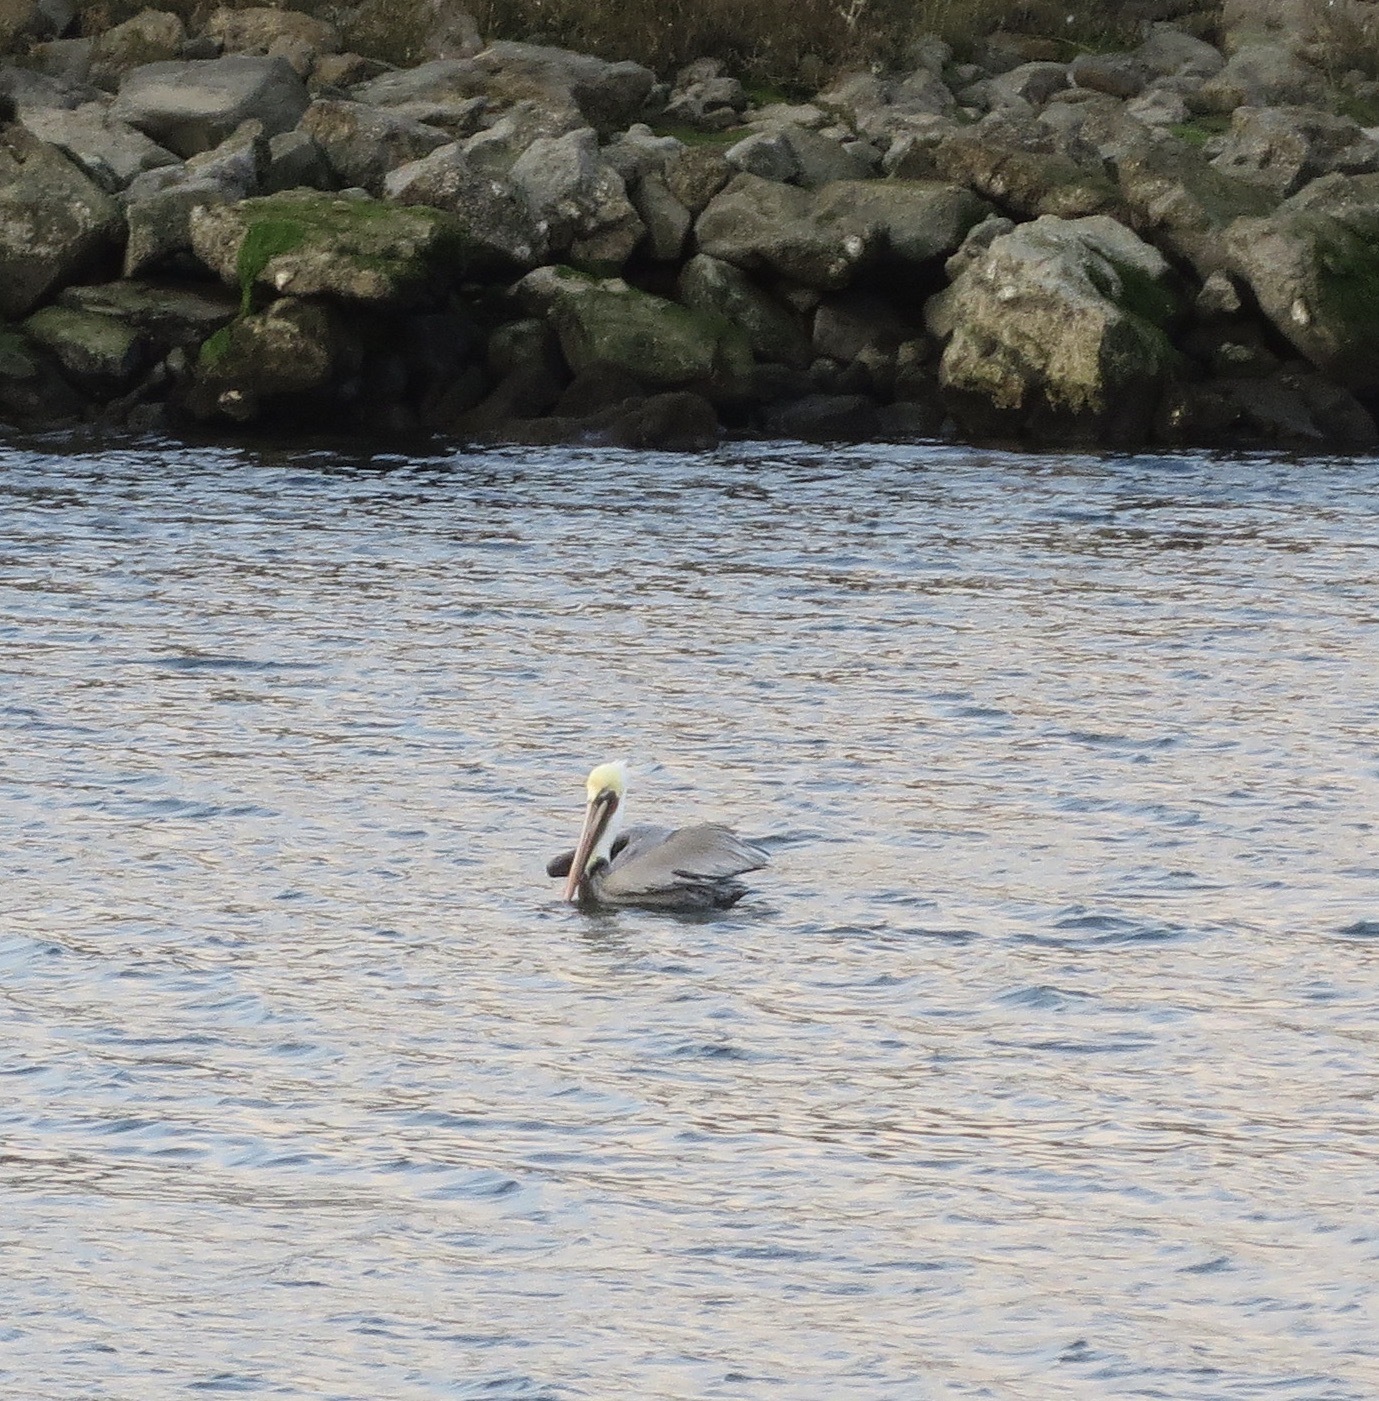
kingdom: Animalia
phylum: Chordata
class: Aves
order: Pelecaniformes
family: Pelecanidae
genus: Pelecanus
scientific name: Pelecanus occidentalis
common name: Brown pelican
